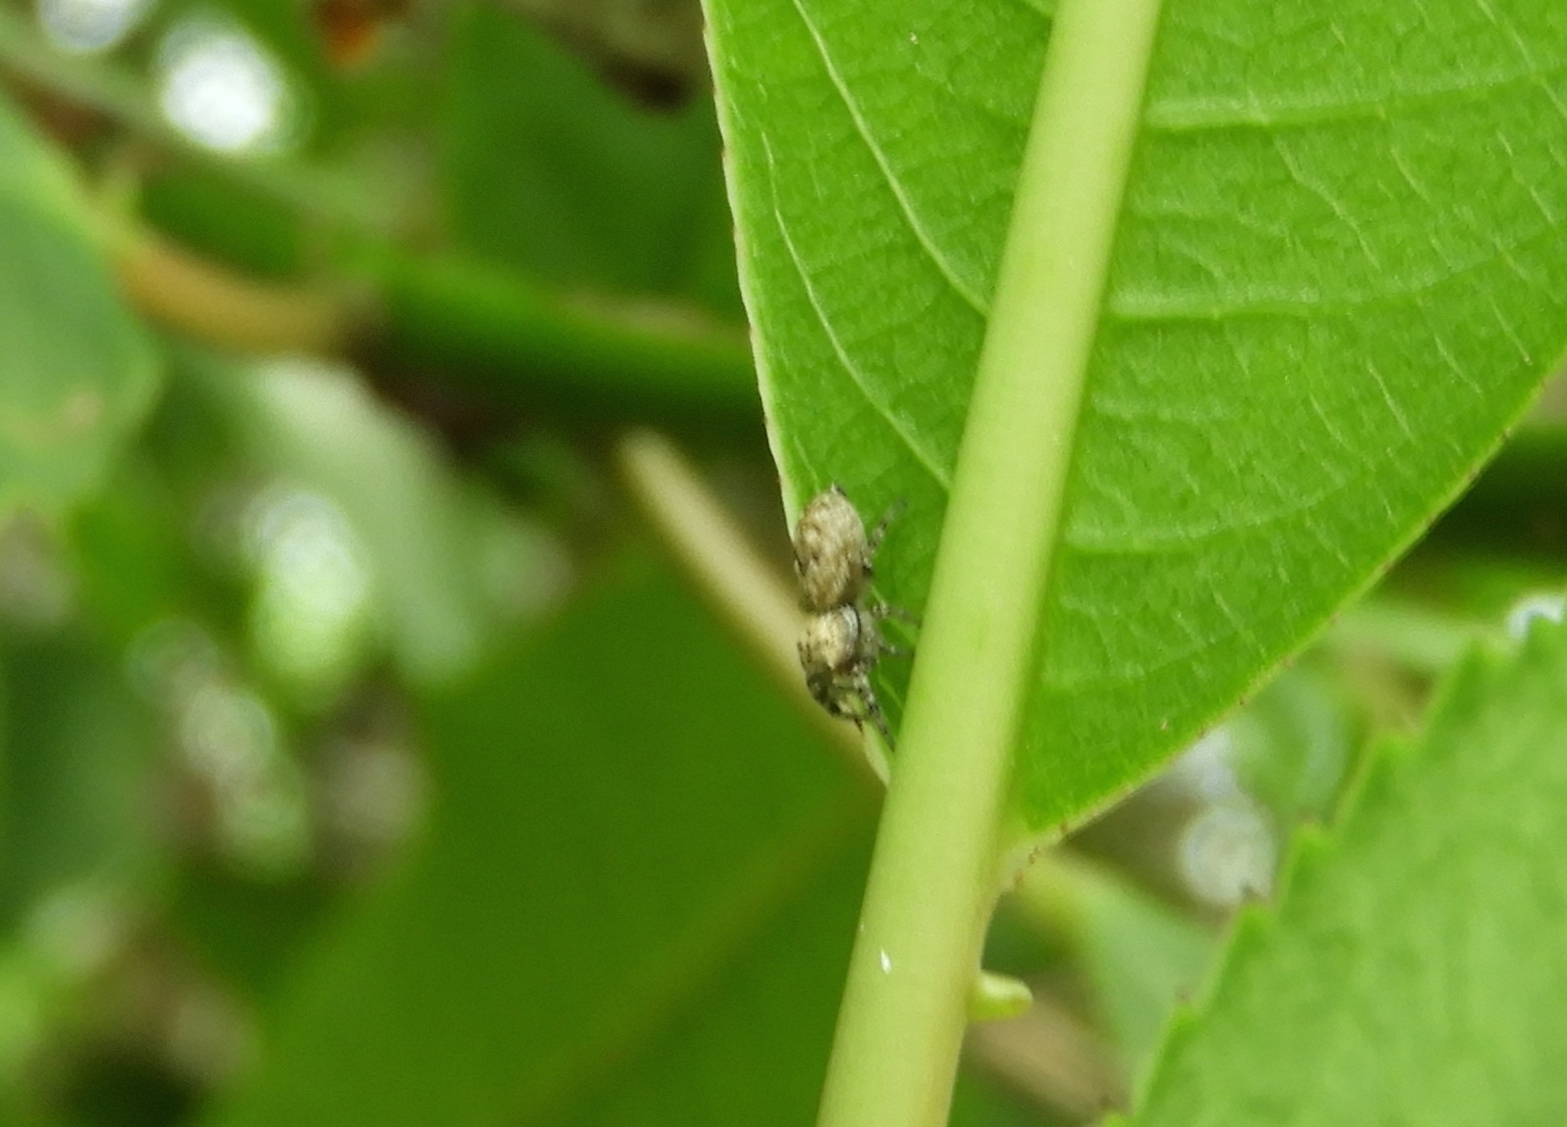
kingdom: Animalia
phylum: Arthropoda
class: Arachnida
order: Araneae
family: Salticidae
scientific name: Salticidae
